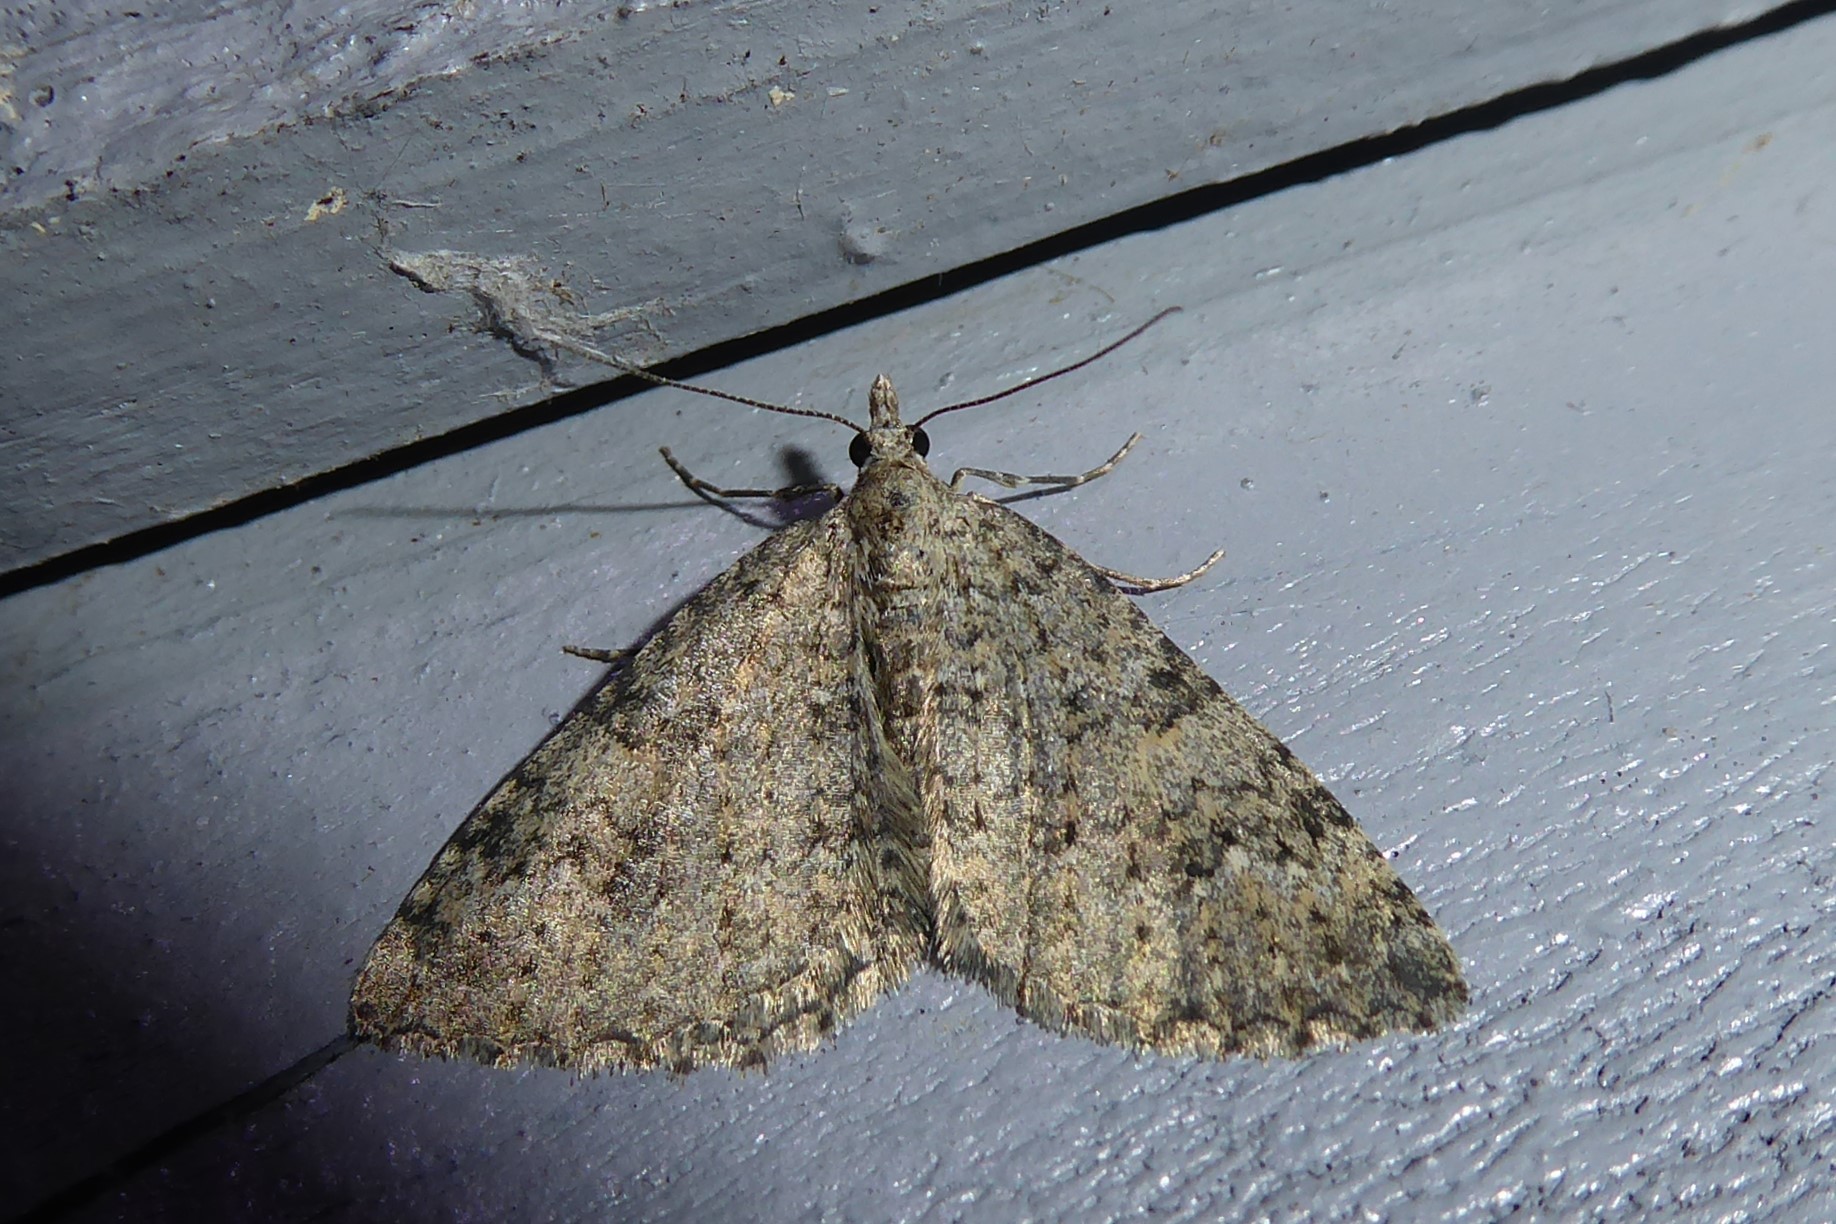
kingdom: Animalia
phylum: Arthropoda
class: Insecta
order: Lepidoptera
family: Geometridae
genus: Helastia
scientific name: Helastia corcularia
